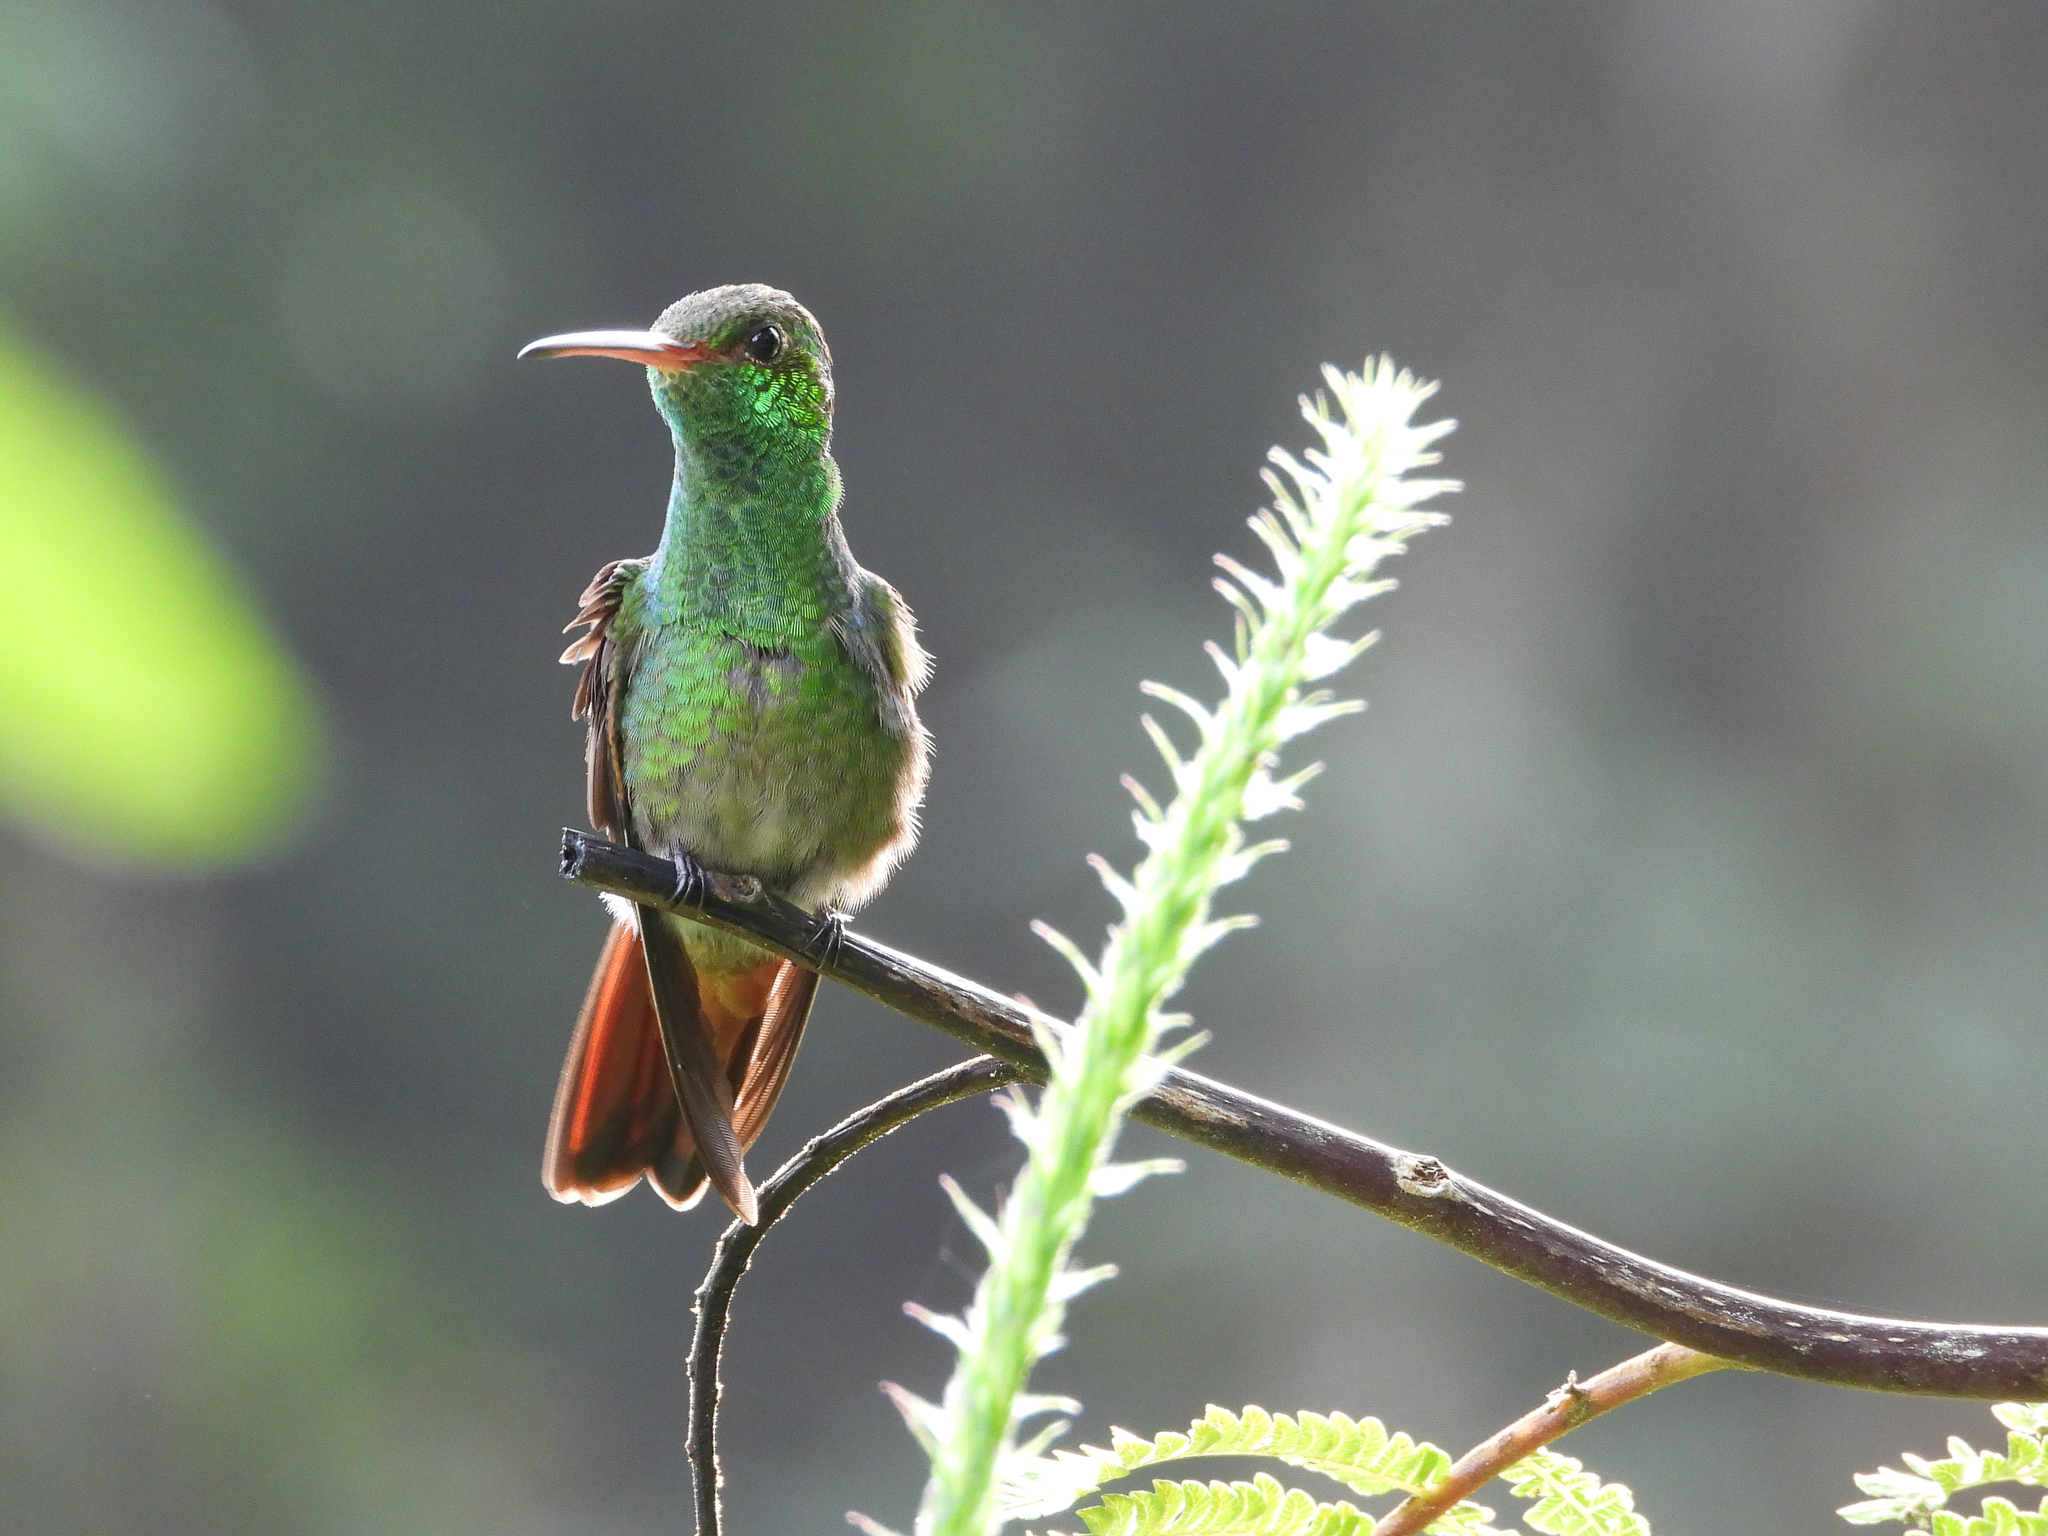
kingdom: Animalia
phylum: Chordata
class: Aves
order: Apodiformes
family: Trochilidae
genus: Amazilia
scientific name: Amazilia tzacatl
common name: Rufous-tailed hummingbird
